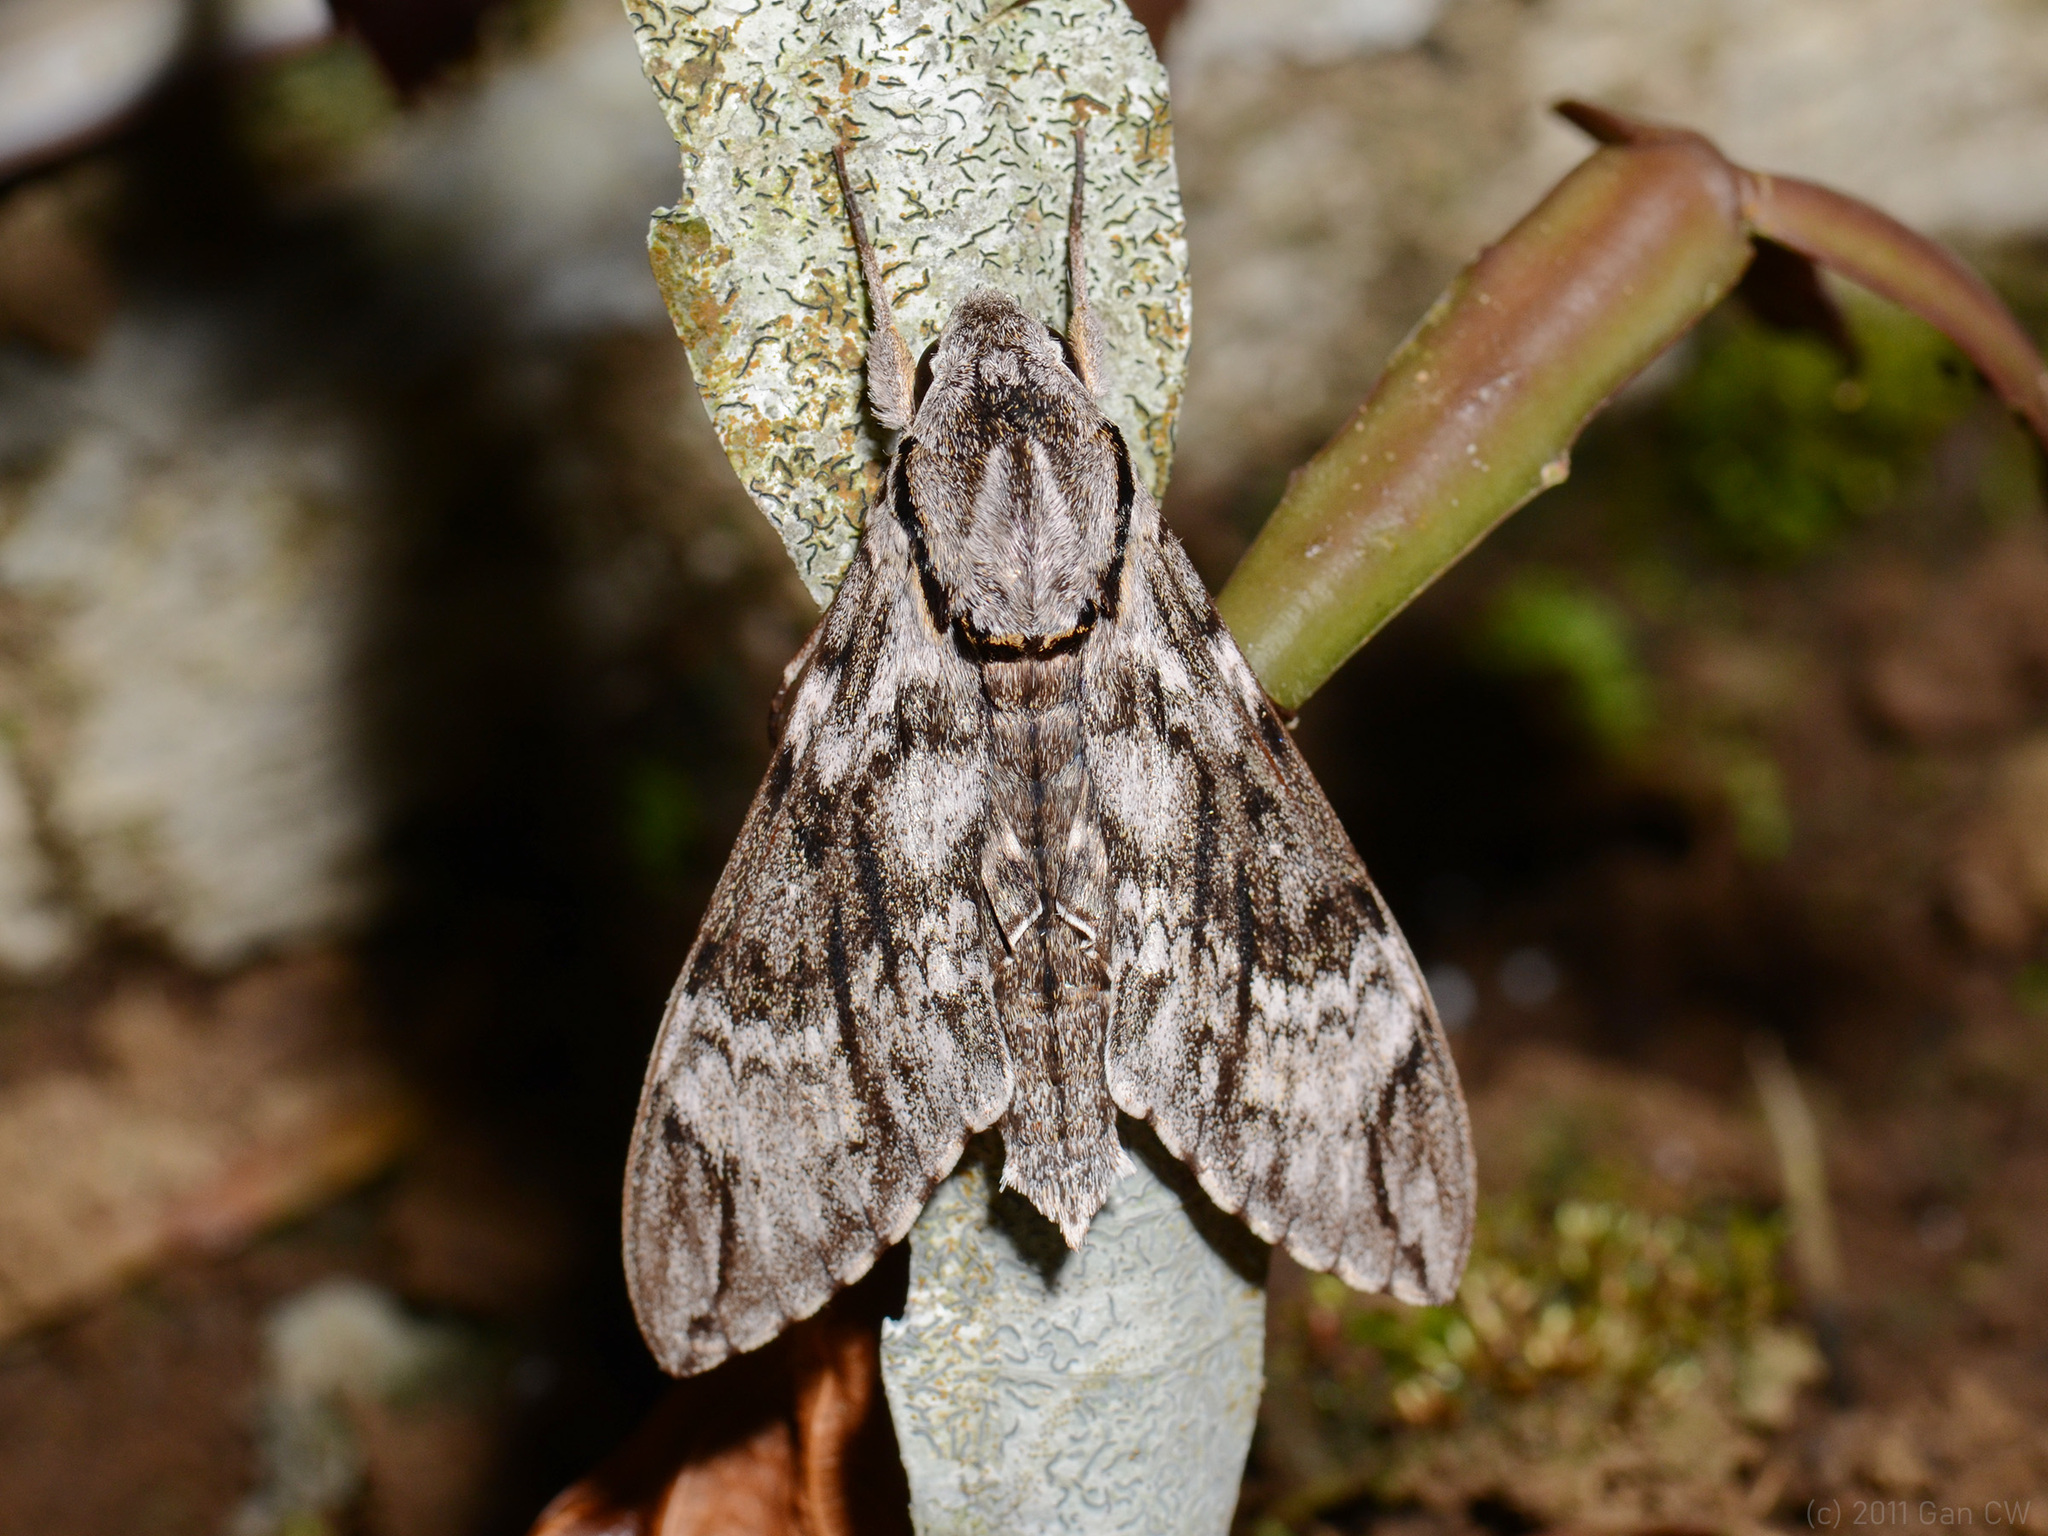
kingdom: Animalia
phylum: Arthropoda
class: Insecta
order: Lepidoptera
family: Sphingidae
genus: Psilogramma
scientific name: Psilogramma discistriga
